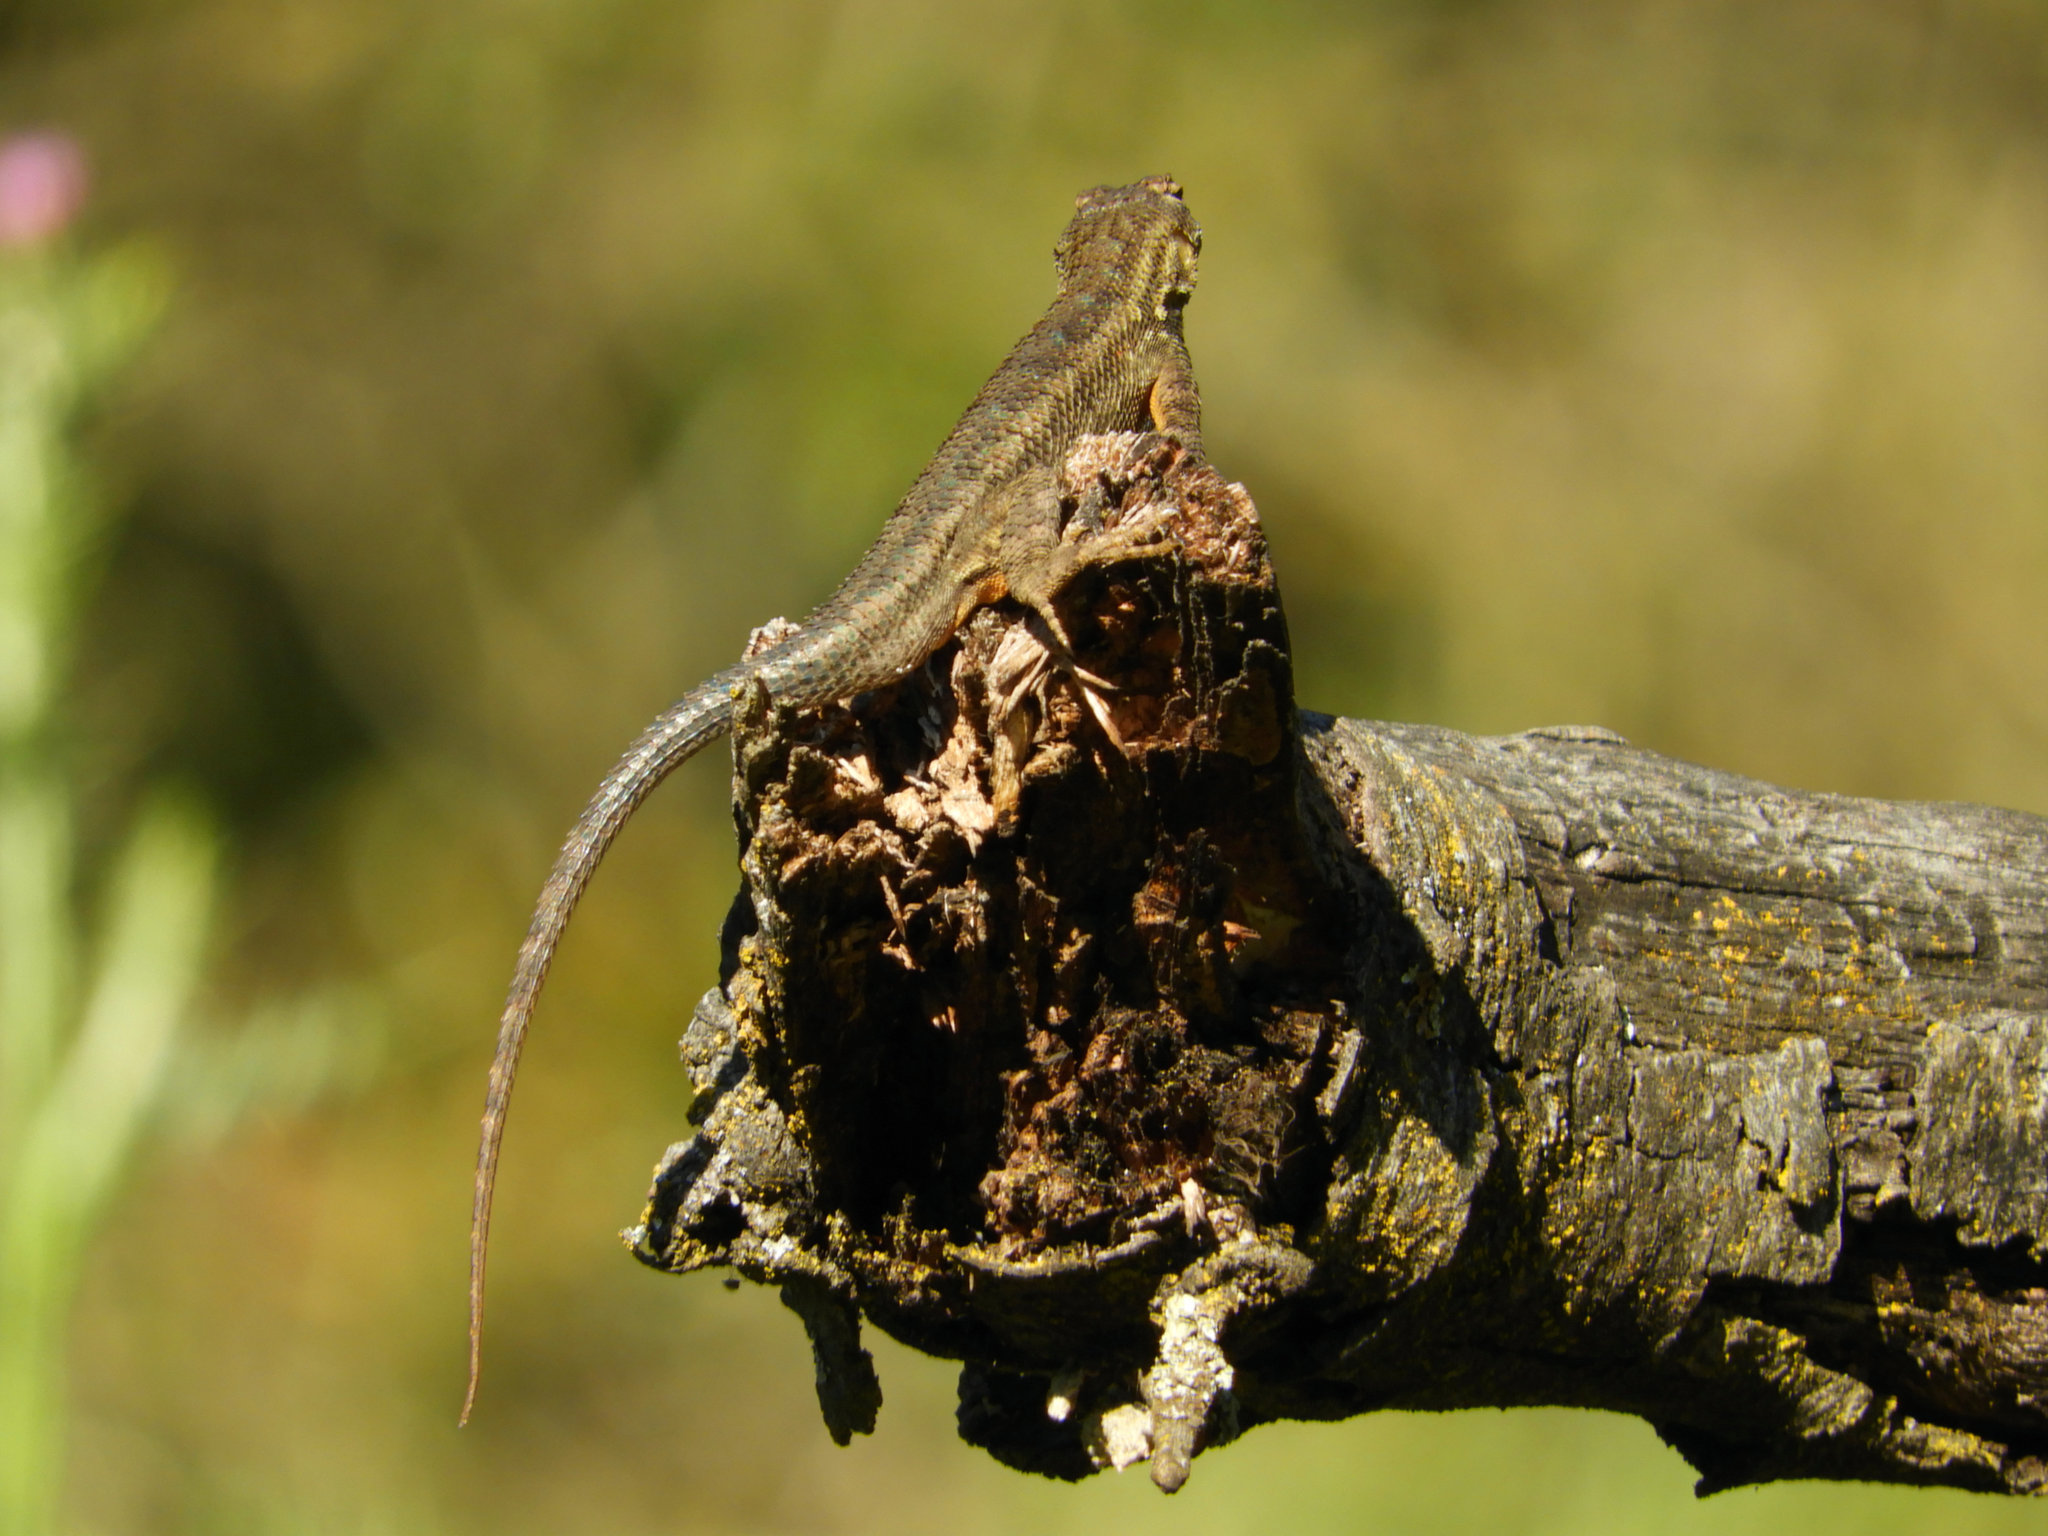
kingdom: Animalia
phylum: Chordata
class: Squamata
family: Phrynosomatidae
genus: Sceloporus
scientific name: Sceloporus occidentalis
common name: Western fence lizard
